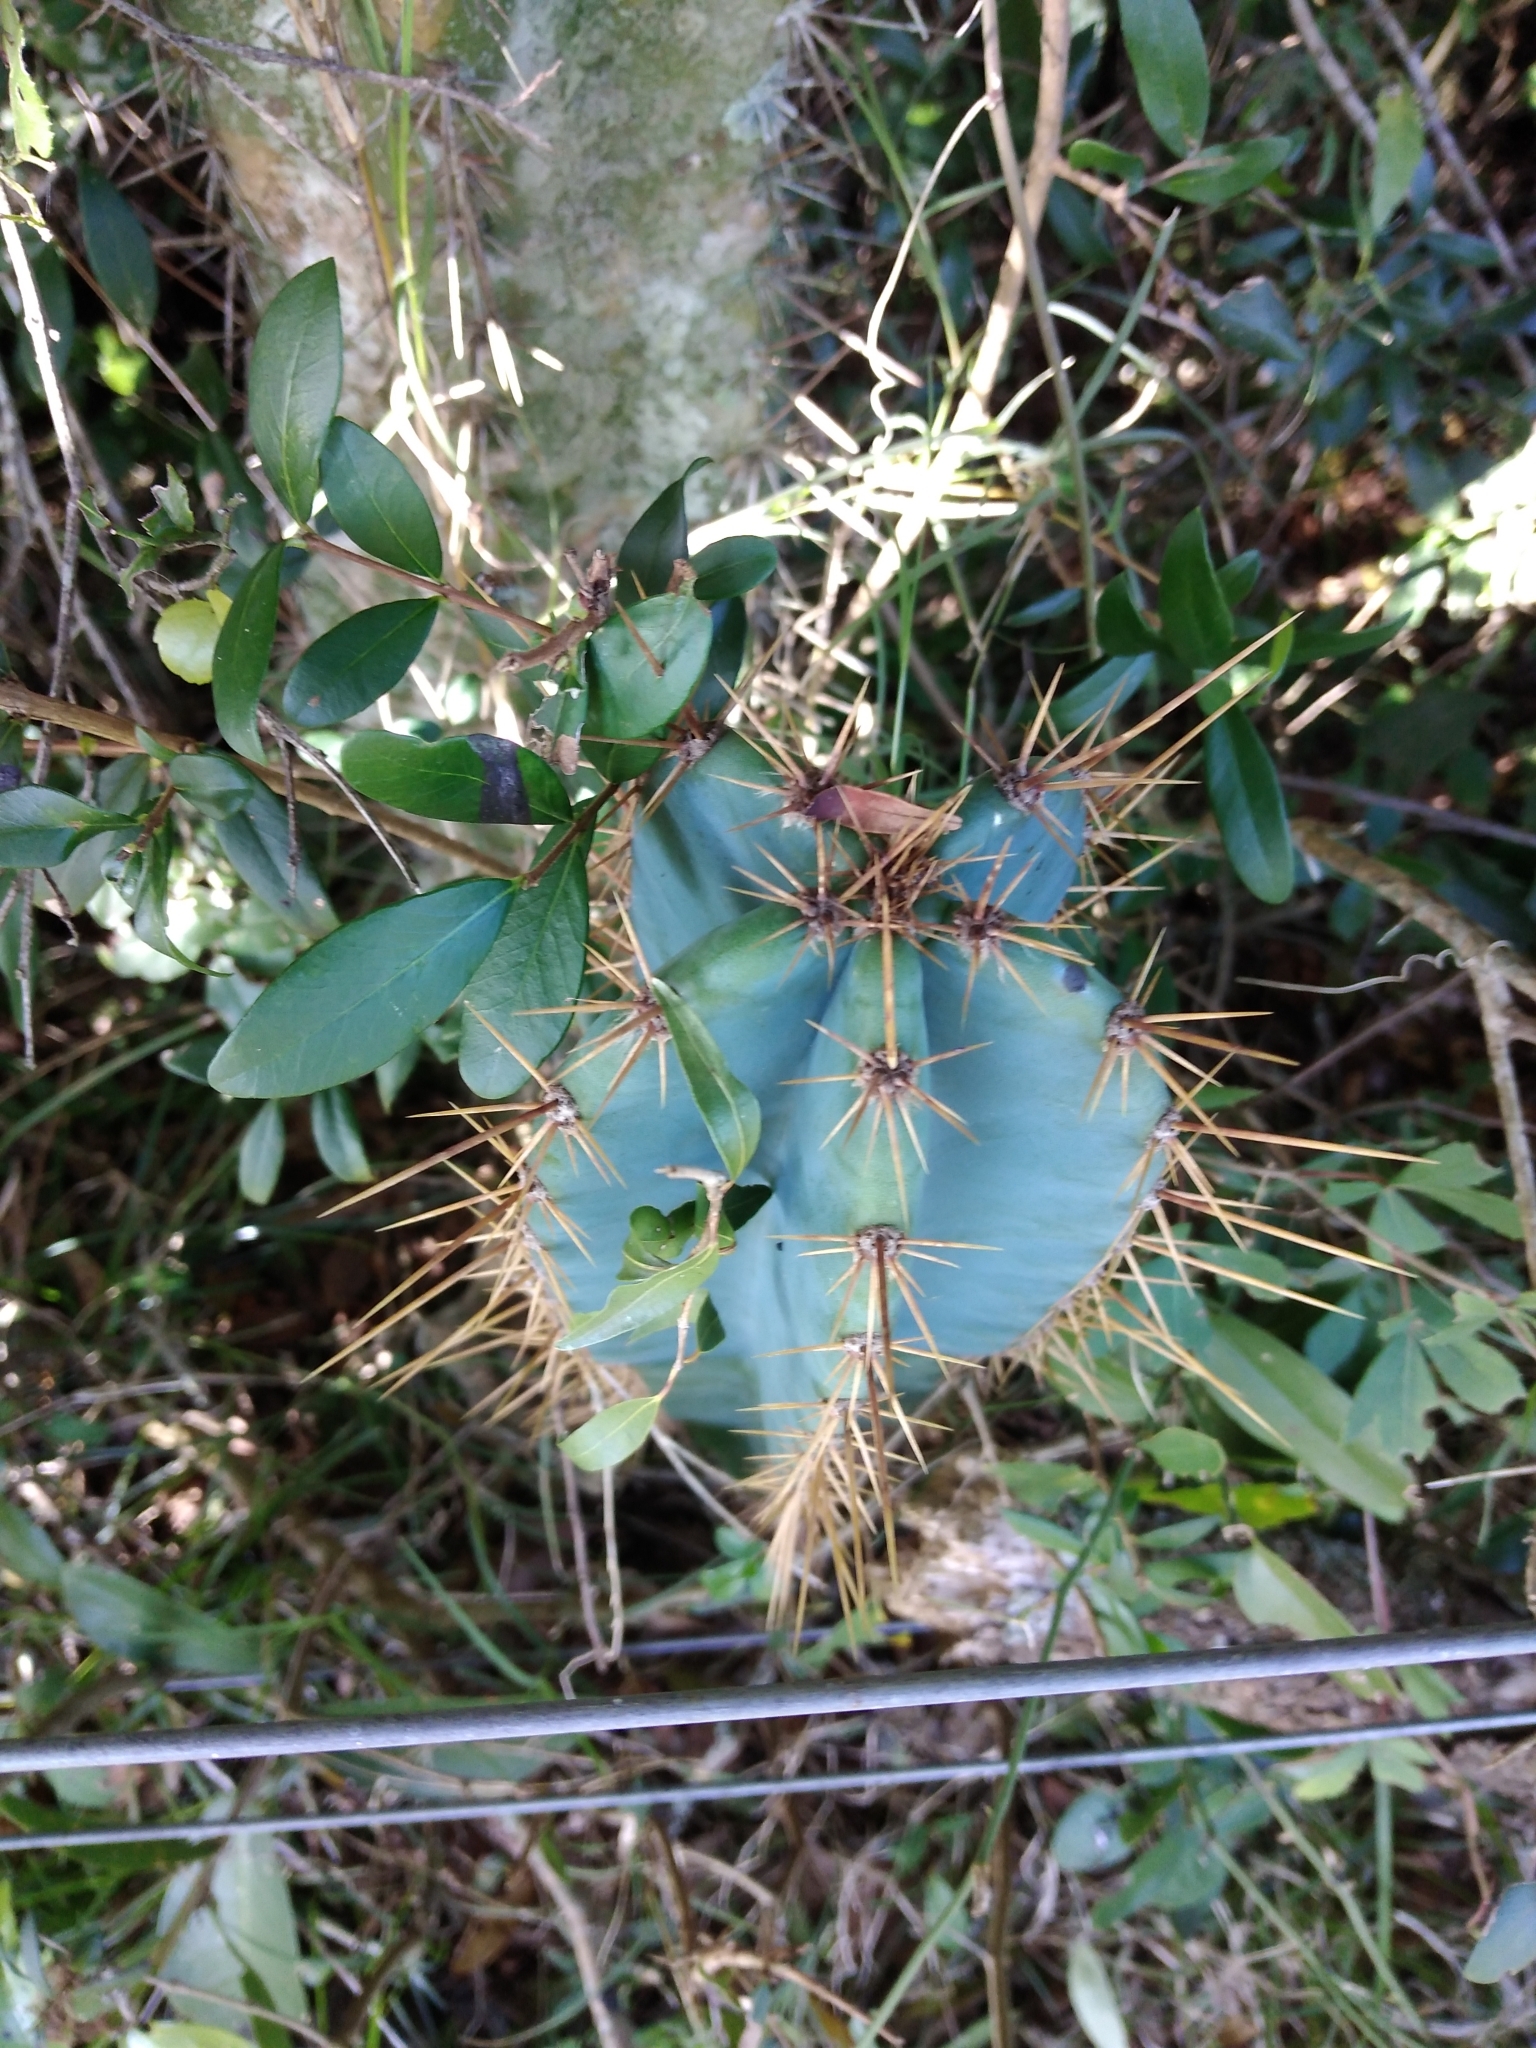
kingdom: Plantae
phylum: Tracheophyta
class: Magnoliopsida
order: Caryophyllales
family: Cactaceae
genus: Cereus
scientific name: Cereus hildmannianus
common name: Hedge cactus
